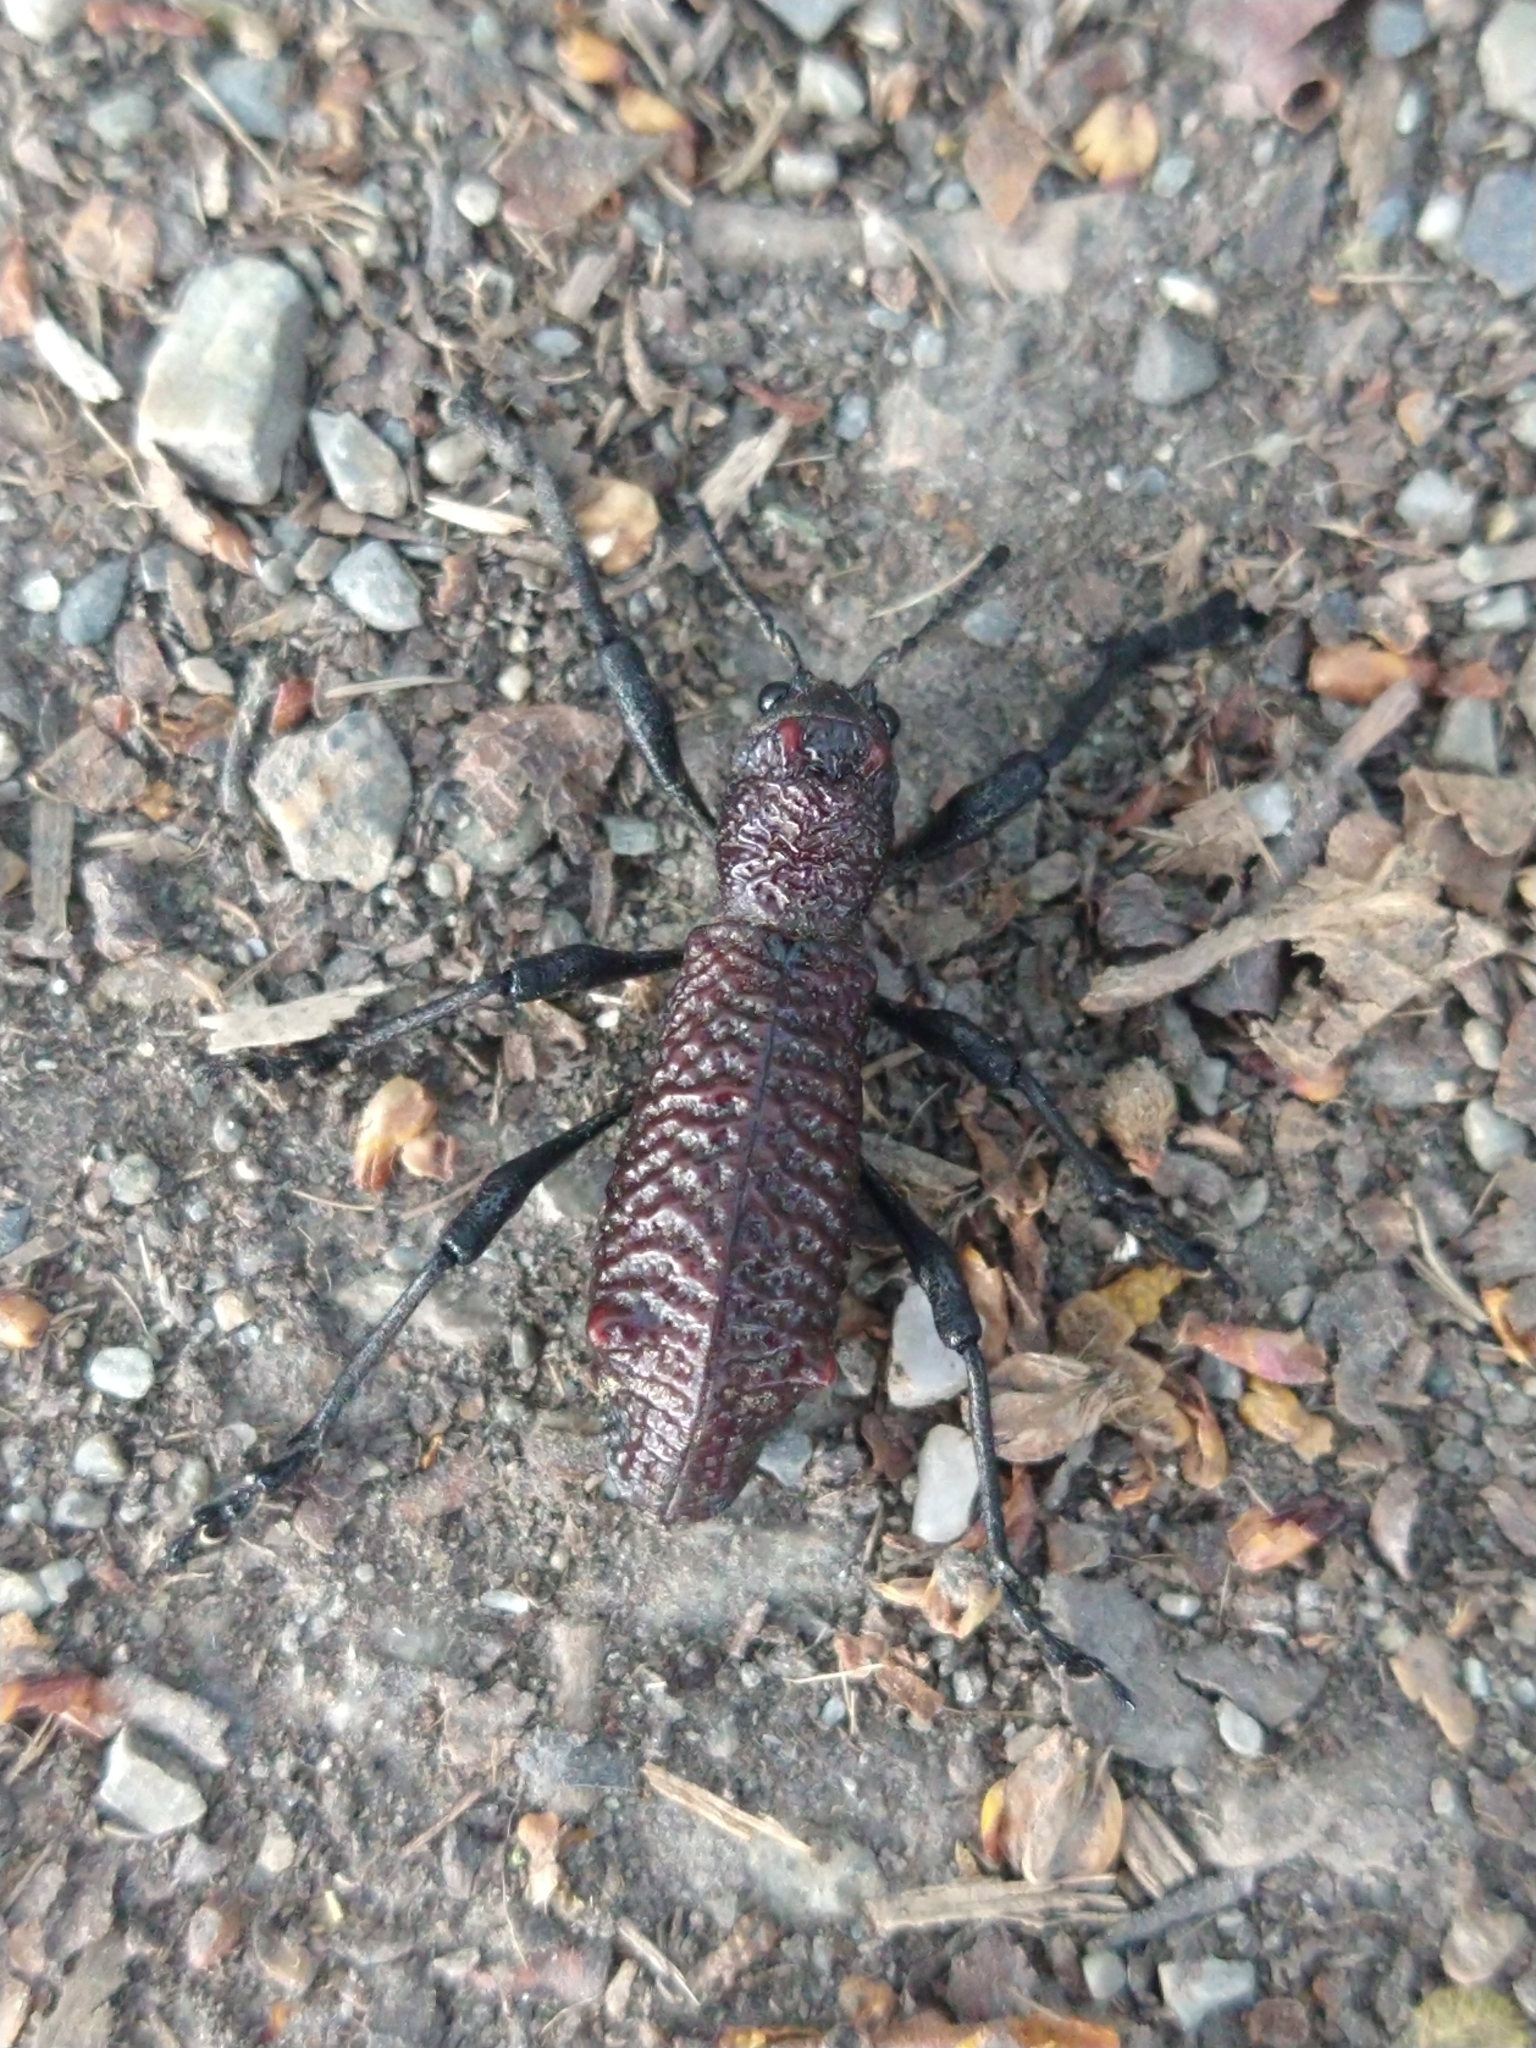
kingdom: Animalia
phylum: Arthropoda
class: Insecta
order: Coleoptera
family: Curculionidae
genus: Aegorhinus
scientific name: Aegorhinus vitulus
